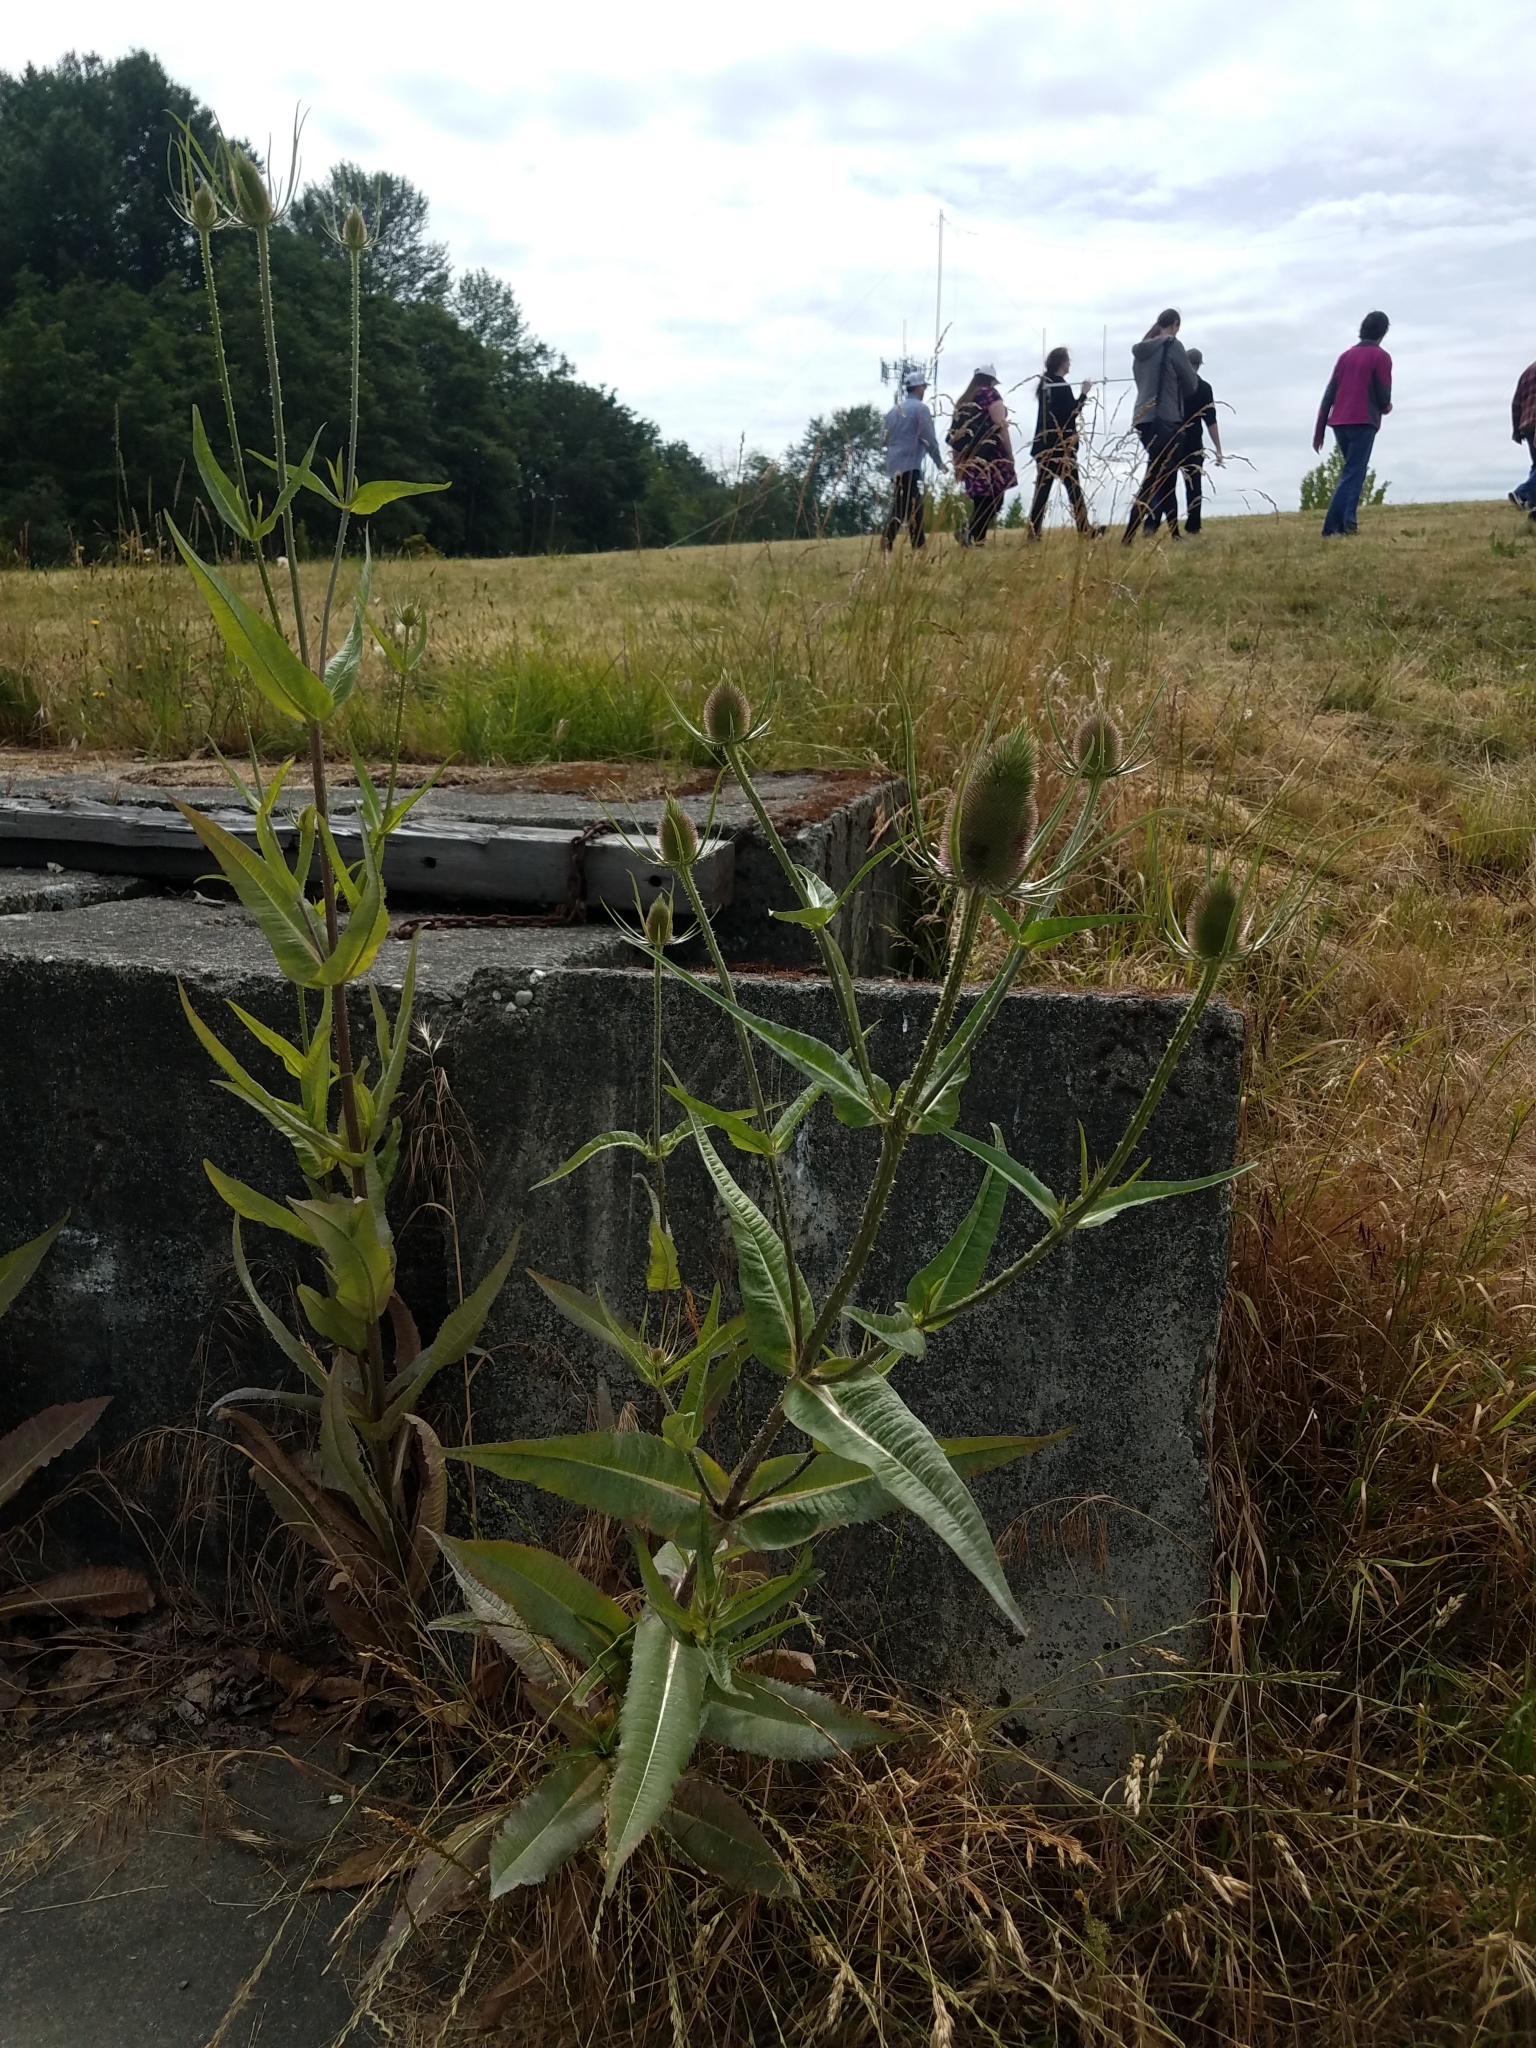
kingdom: Plantae
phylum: Tracheophyta
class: Magnoliopsida
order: Dipsacales
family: Caprifoliaceae
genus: Dipsacus
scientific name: Dipsacus fullonum
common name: Teasel
